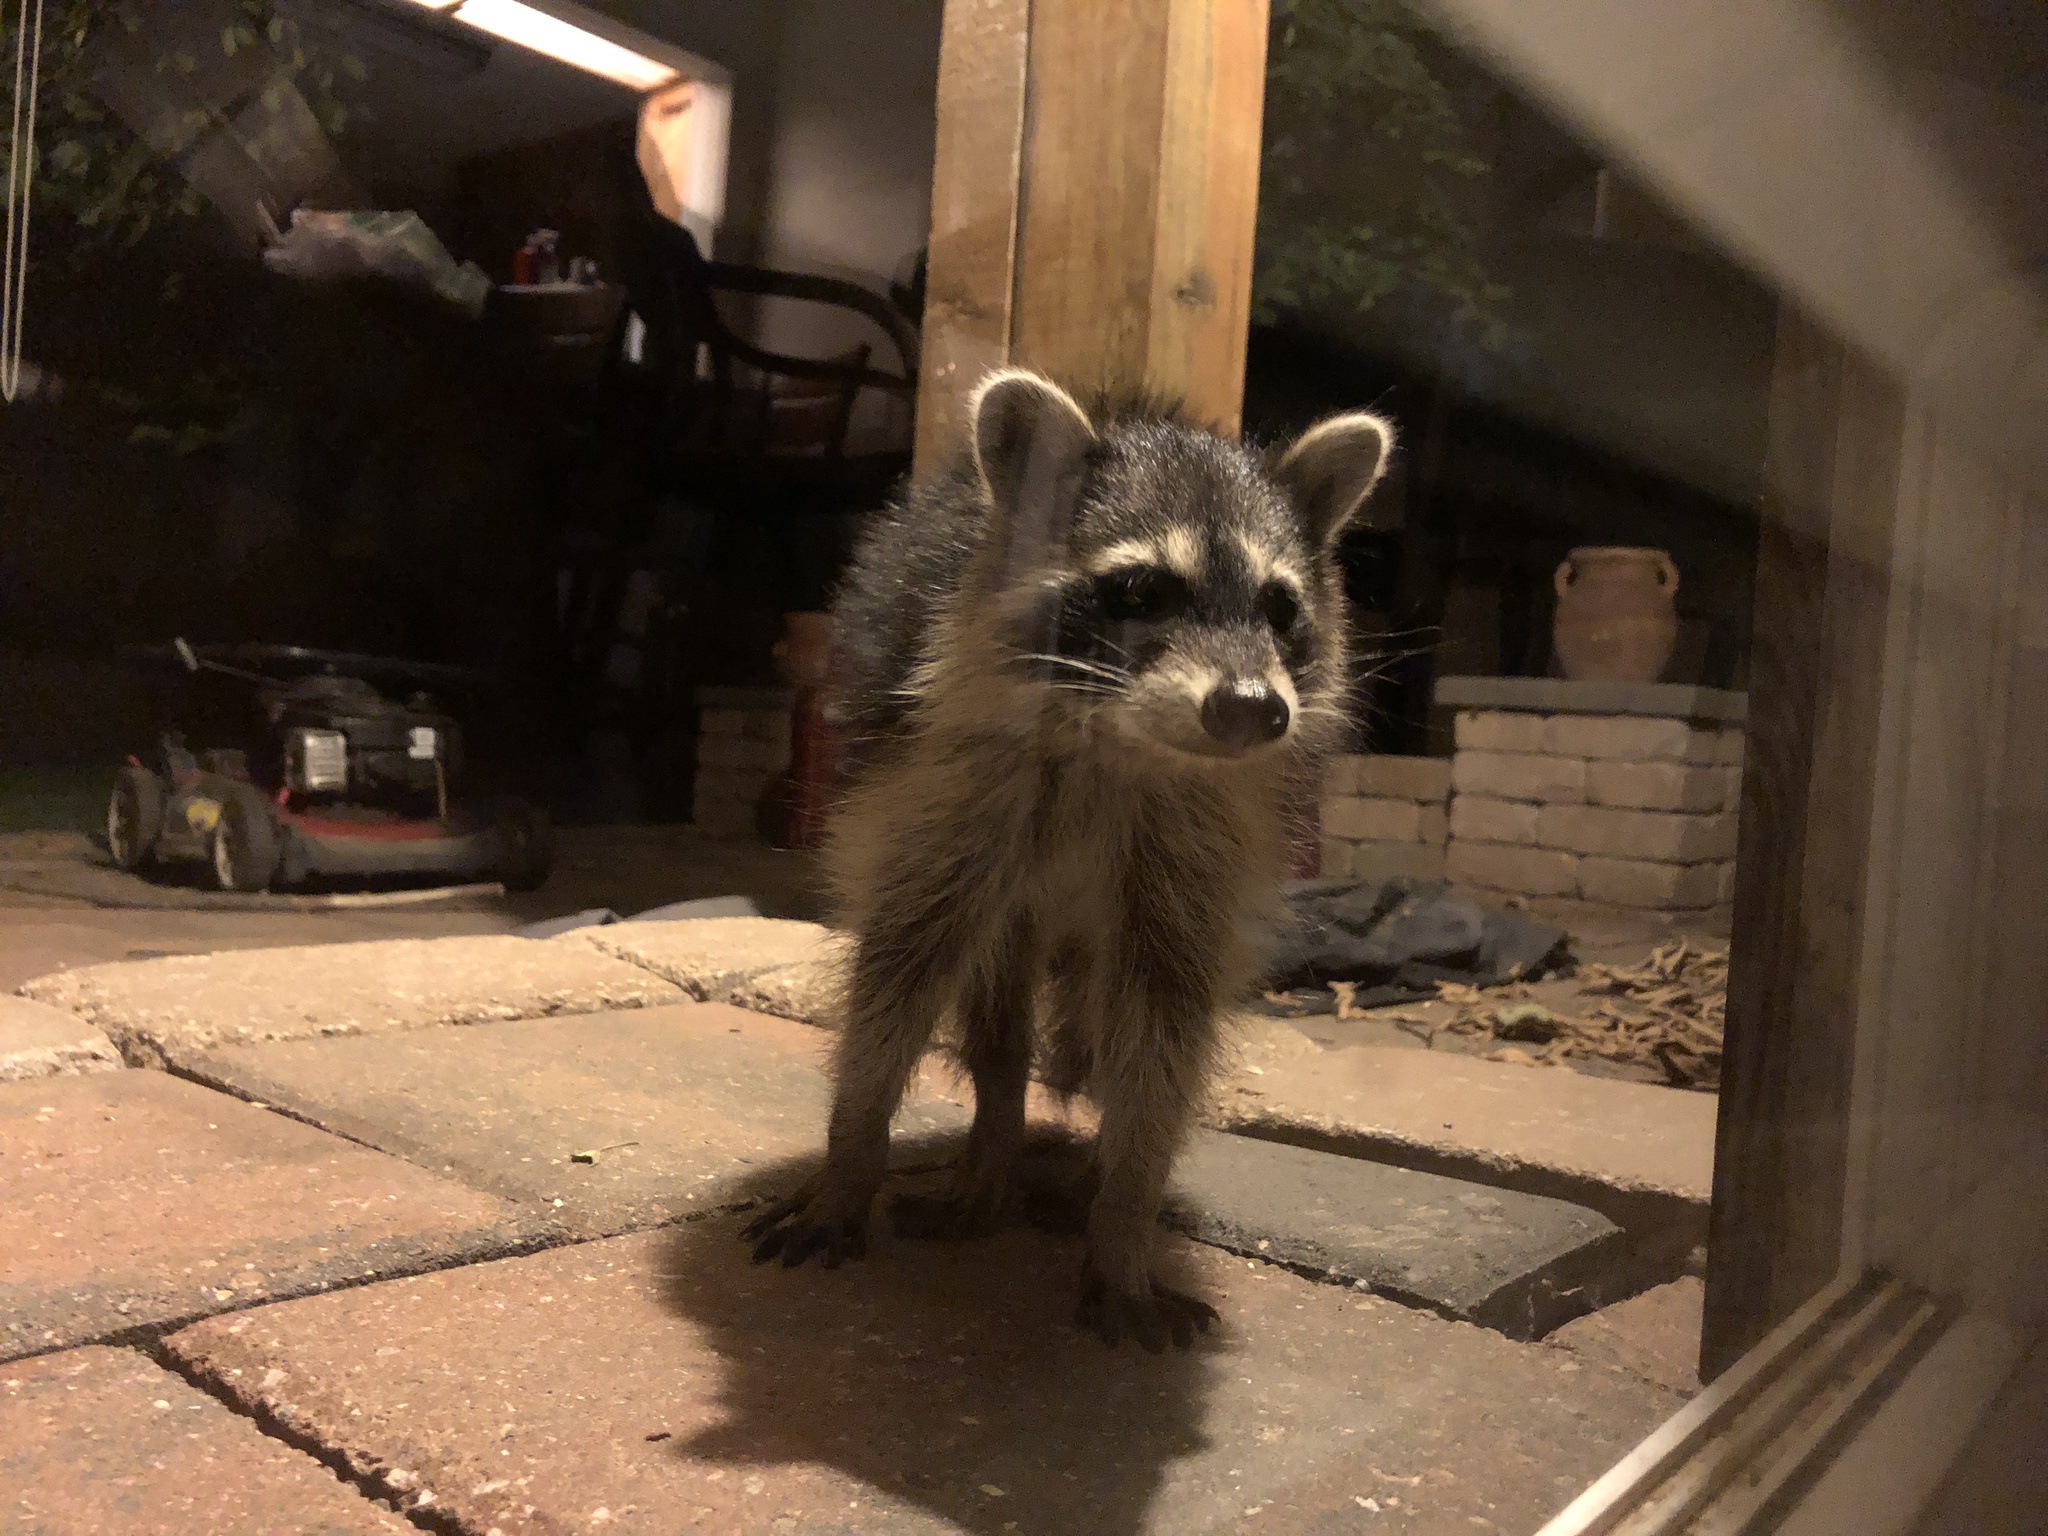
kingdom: Animalia
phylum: Chordata
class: Mammalia
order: Carnivora
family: Procyonidae
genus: Procyon
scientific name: Procyon lotor
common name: Raccoon
